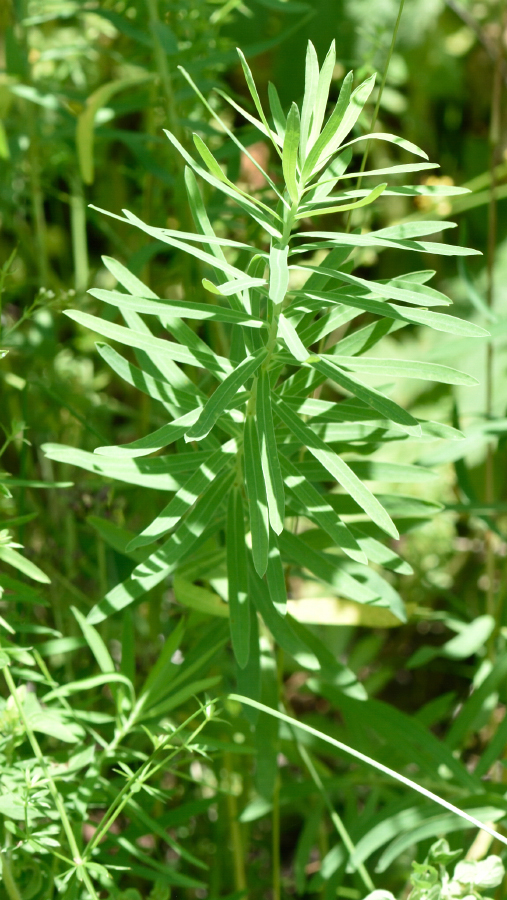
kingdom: Plantae
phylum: Tracheophyta
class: Magnoliopsida
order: Malpighiales
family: Euphorbiaceae
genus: Euphorbia
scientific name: Euphorbia virgata
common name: Leafy spurge
